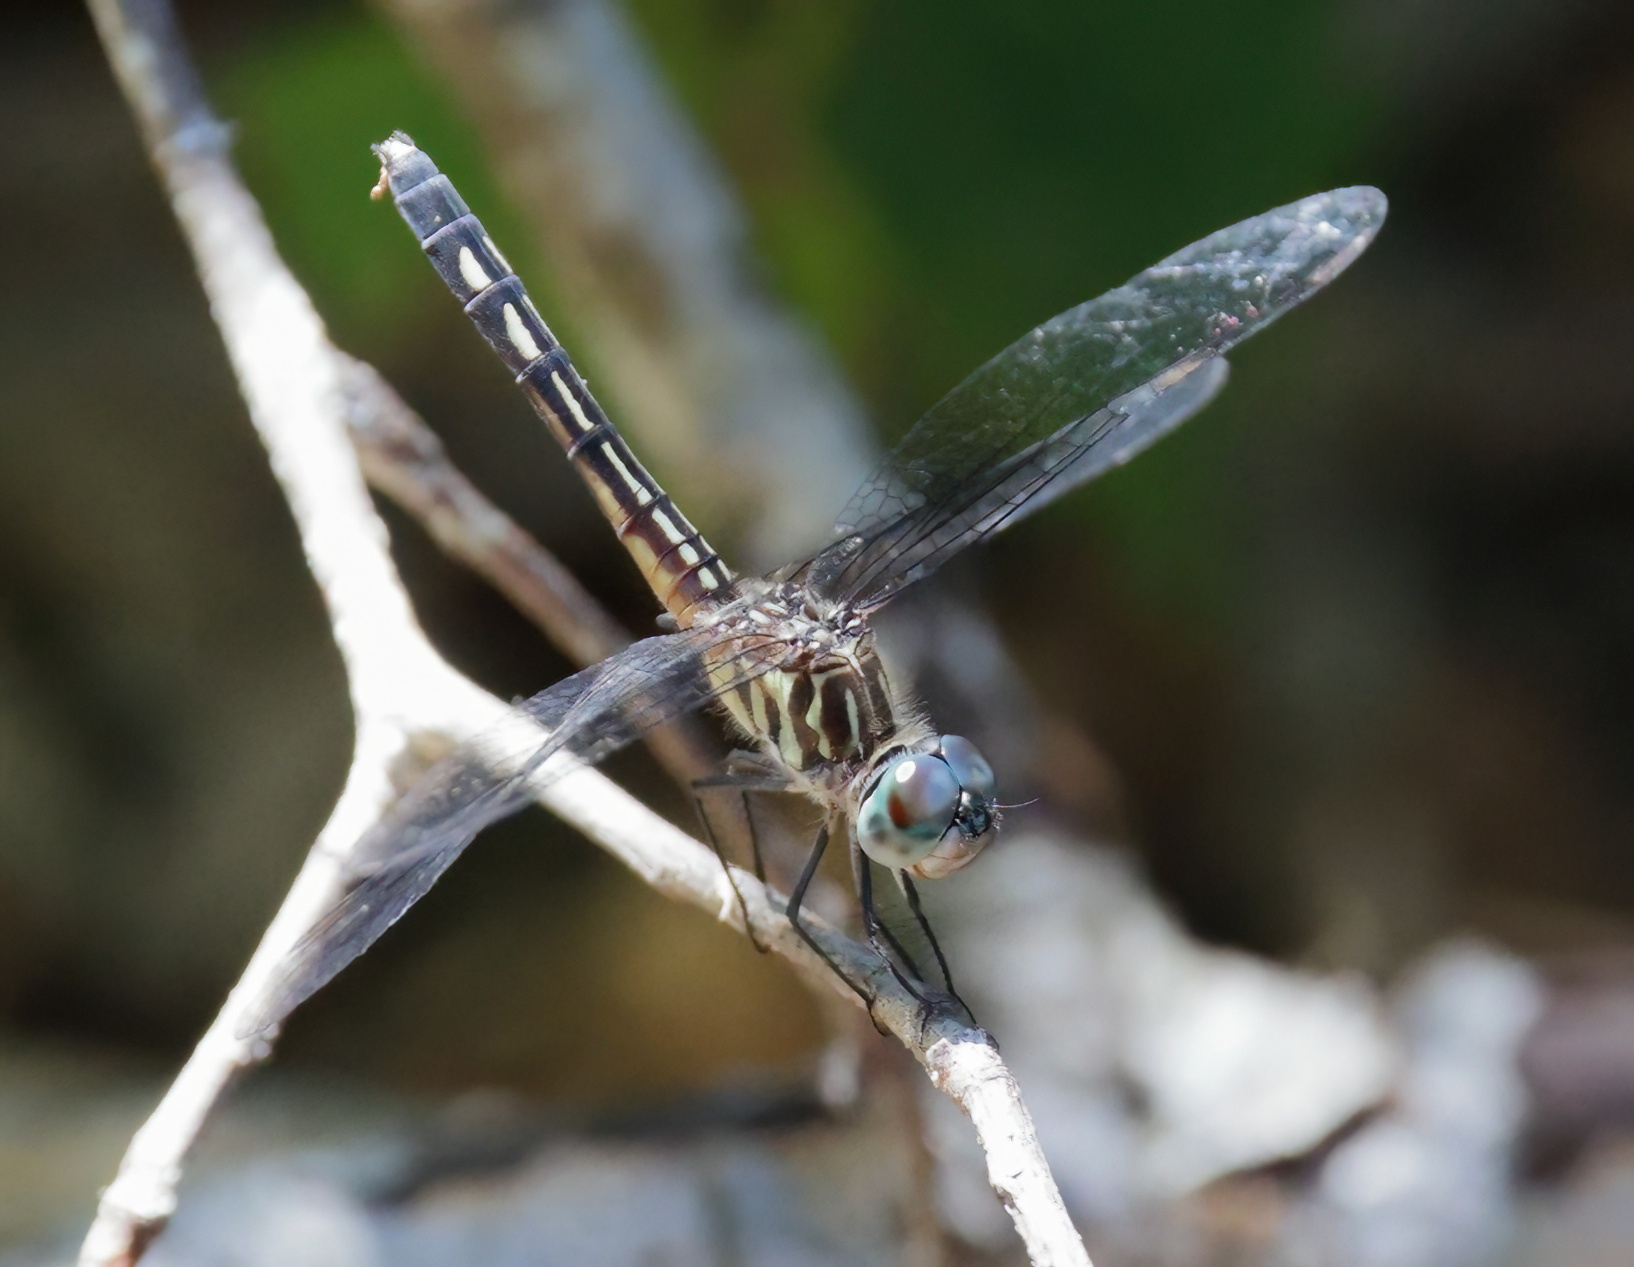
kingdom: Animalia
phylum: Arthropoda
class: Insecta
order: Odonata
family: Libellulidae
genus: Pachydiplax
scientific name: Pachydiplax longipennis
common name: Blue dasher
